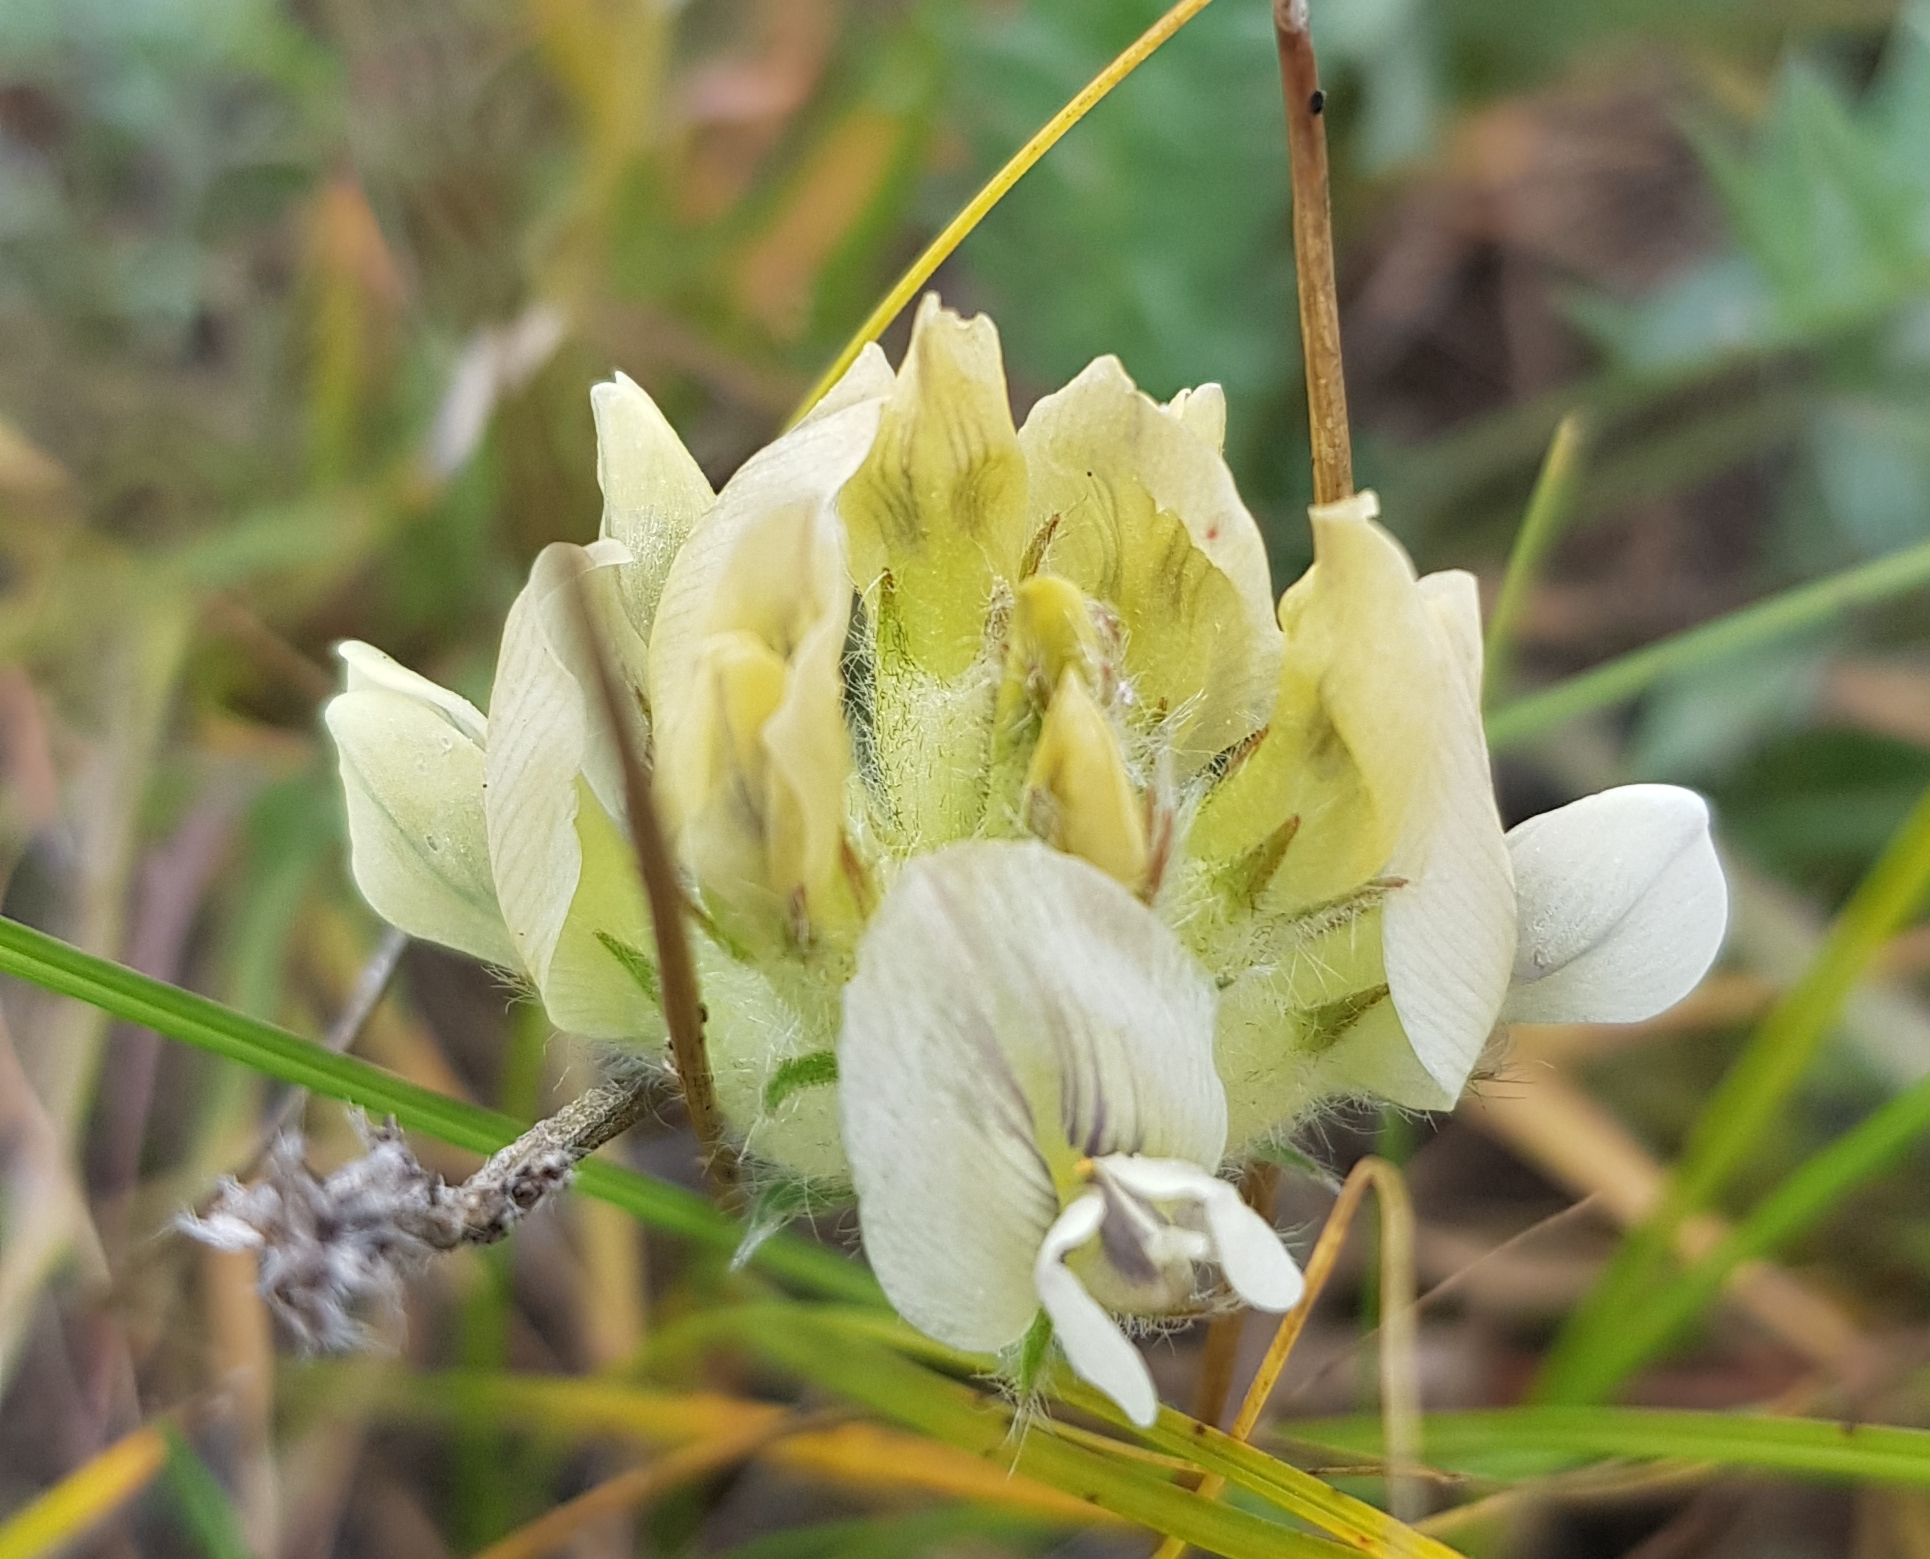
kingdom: Plantae
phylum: Tracheophyta
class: Magnoliopsida
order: Fabales
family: Fabaceae
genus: Oxytropis
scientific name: Oxytropis sordida
